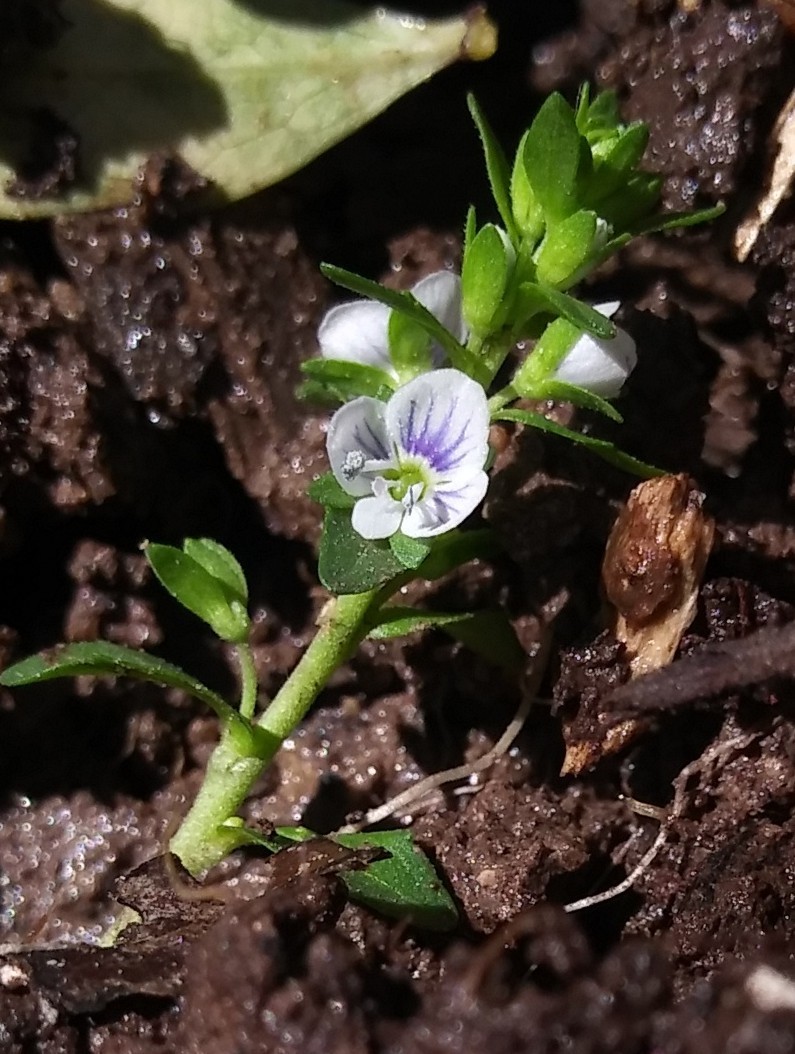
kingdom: Plantae
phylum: Tracheophyta
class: Magnoliopsida
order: Lamiales
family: Plantaginaceae
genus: Veronica
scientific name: Veronica serpyllifolia
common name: Thyme-leaved speedwell
